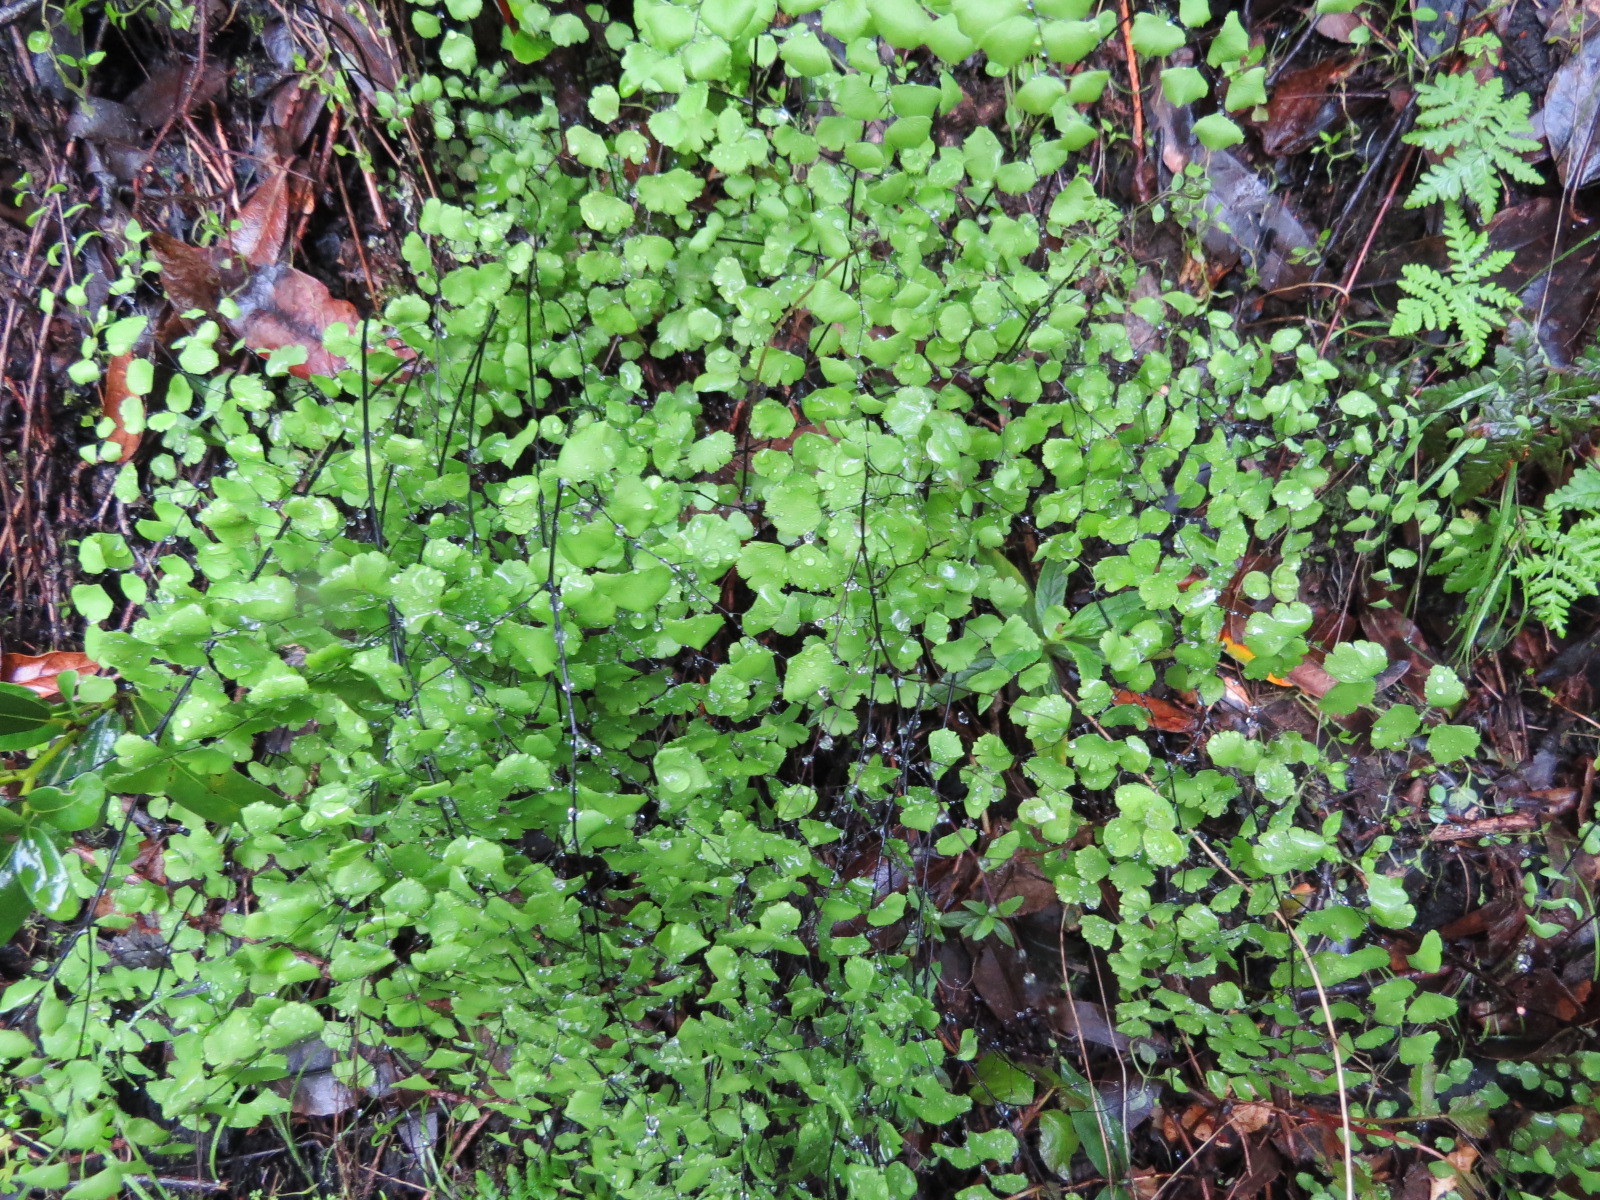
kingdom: Plantae
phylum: Tracheophyta
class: Polypodiopsida
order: Polypodiales
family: Pteridaceae
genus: Adiantum
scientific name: Adiantum jordanii
